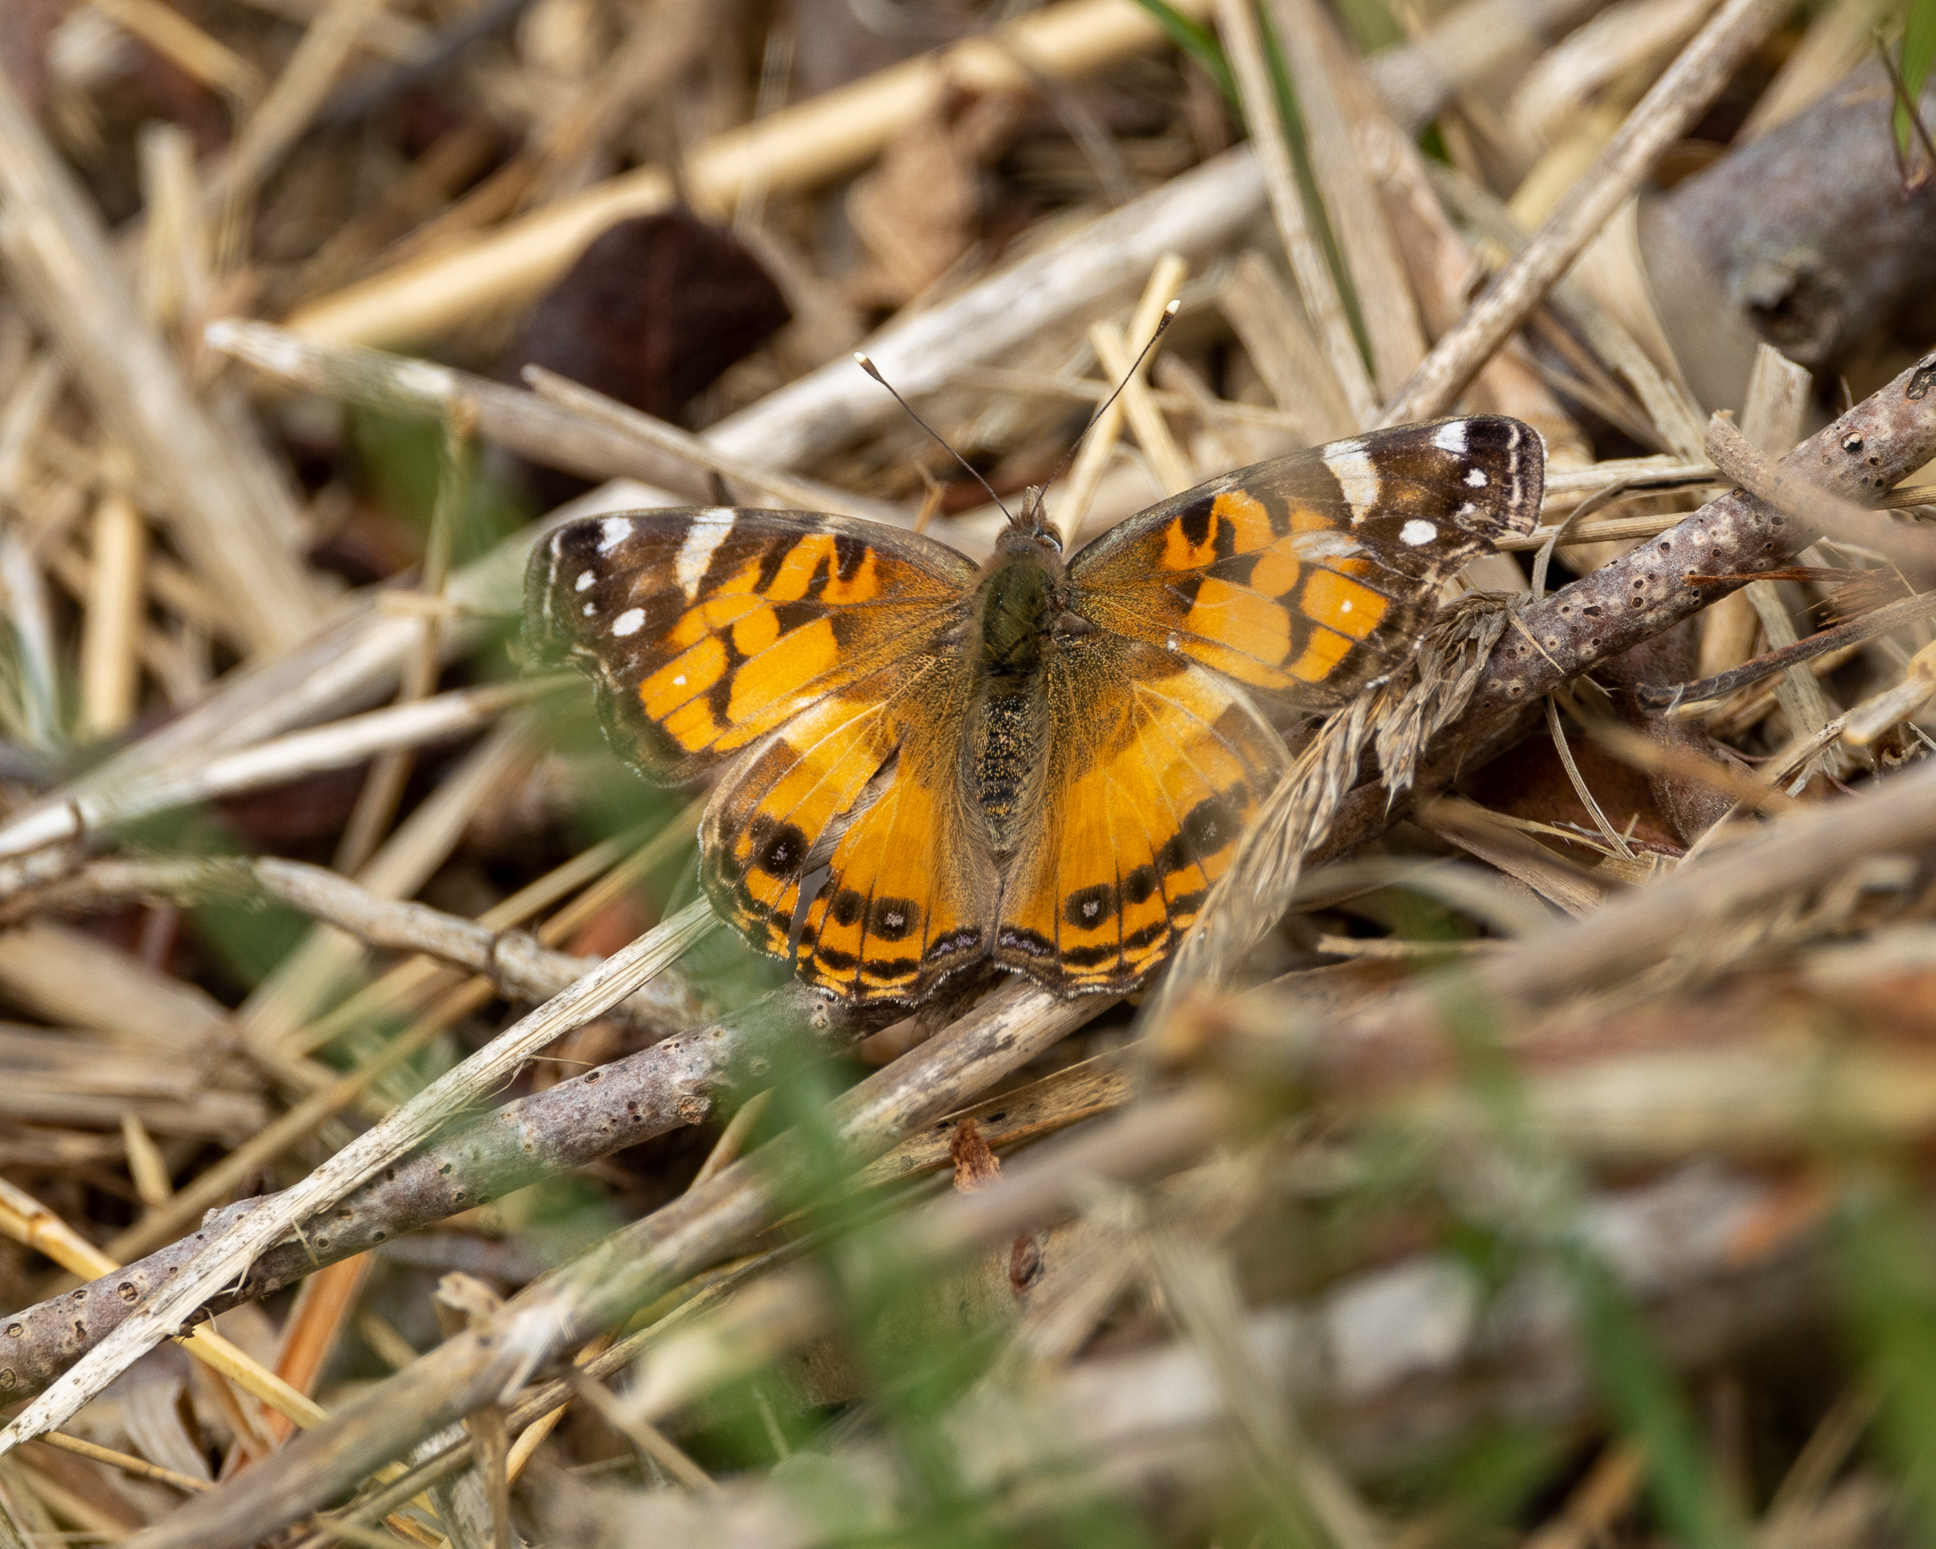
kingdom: Animalia
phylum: Arthropoda
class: Insecta
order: Lepidoptera
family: Nymphalidae
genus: Vanessa
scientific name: Vanessa virginiensis
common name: American lady
